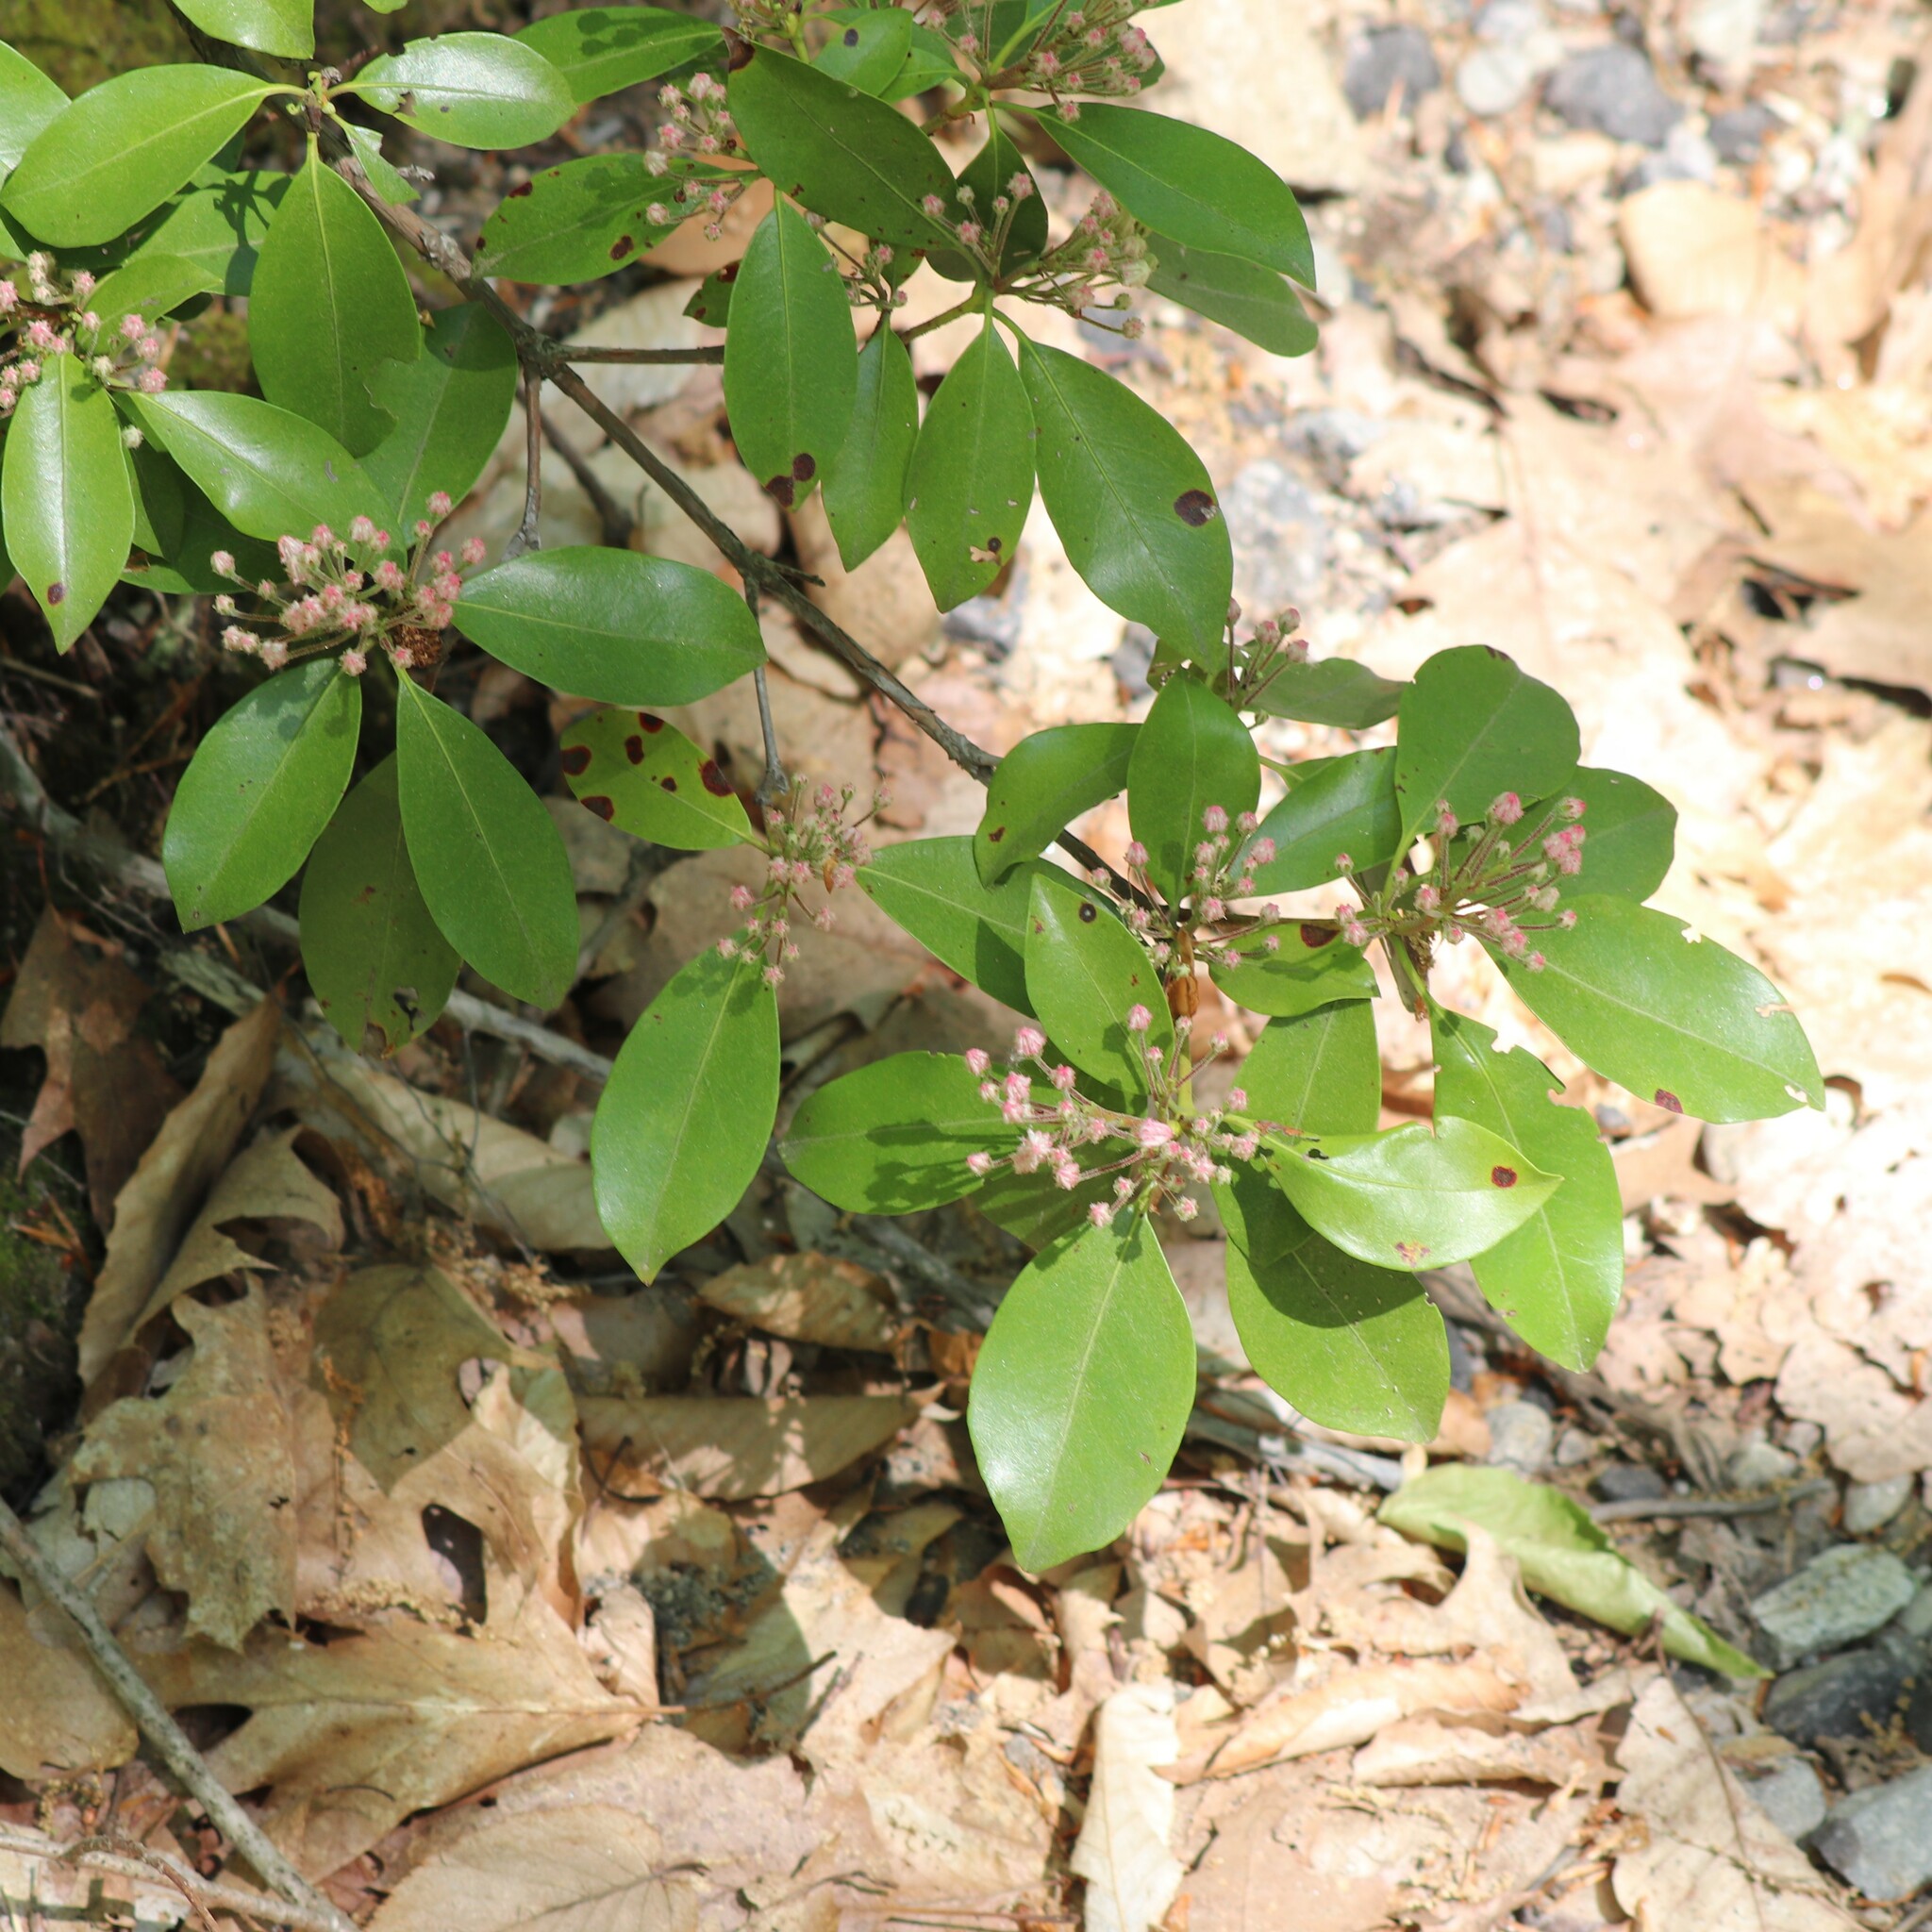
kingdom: Plantae
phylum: Tracheophyta
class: Magnoliopsida
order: Ericales
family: Ericaceae
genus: Kalmia
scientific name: Kalmia latifolia
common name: Mountain-laurel
